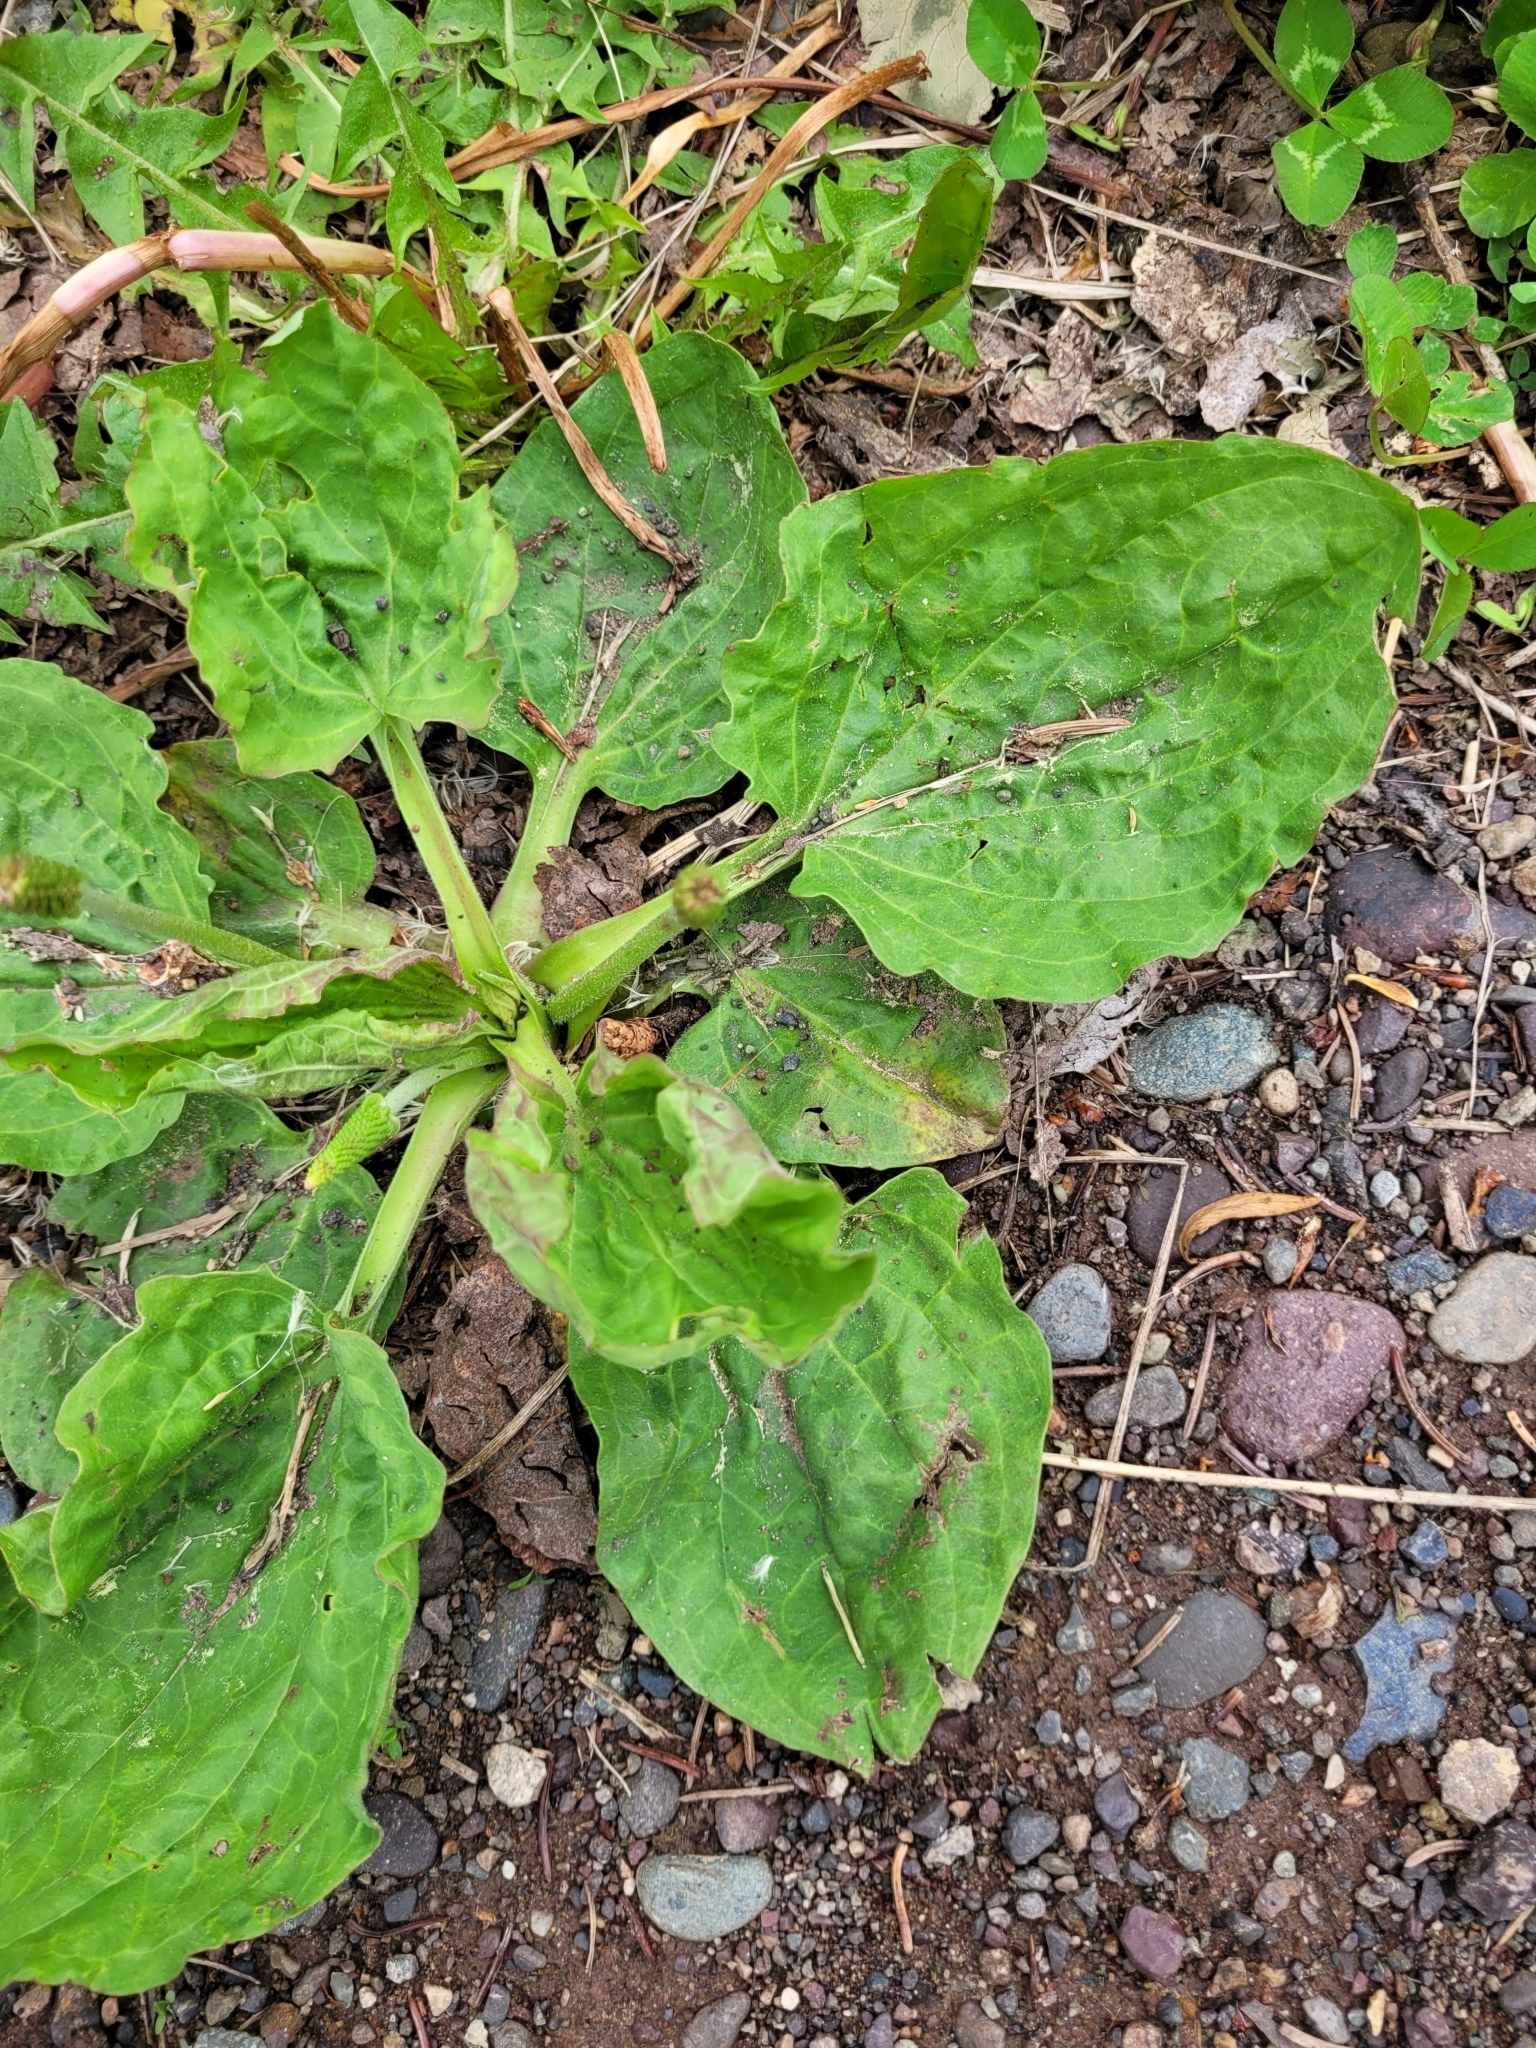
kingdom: Plantae
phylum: Tracheophyta
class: Magnoliopsida
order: Lamiales
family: Plantaginaceae
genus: Plantago
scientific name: Plantago major
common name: Common plantain
